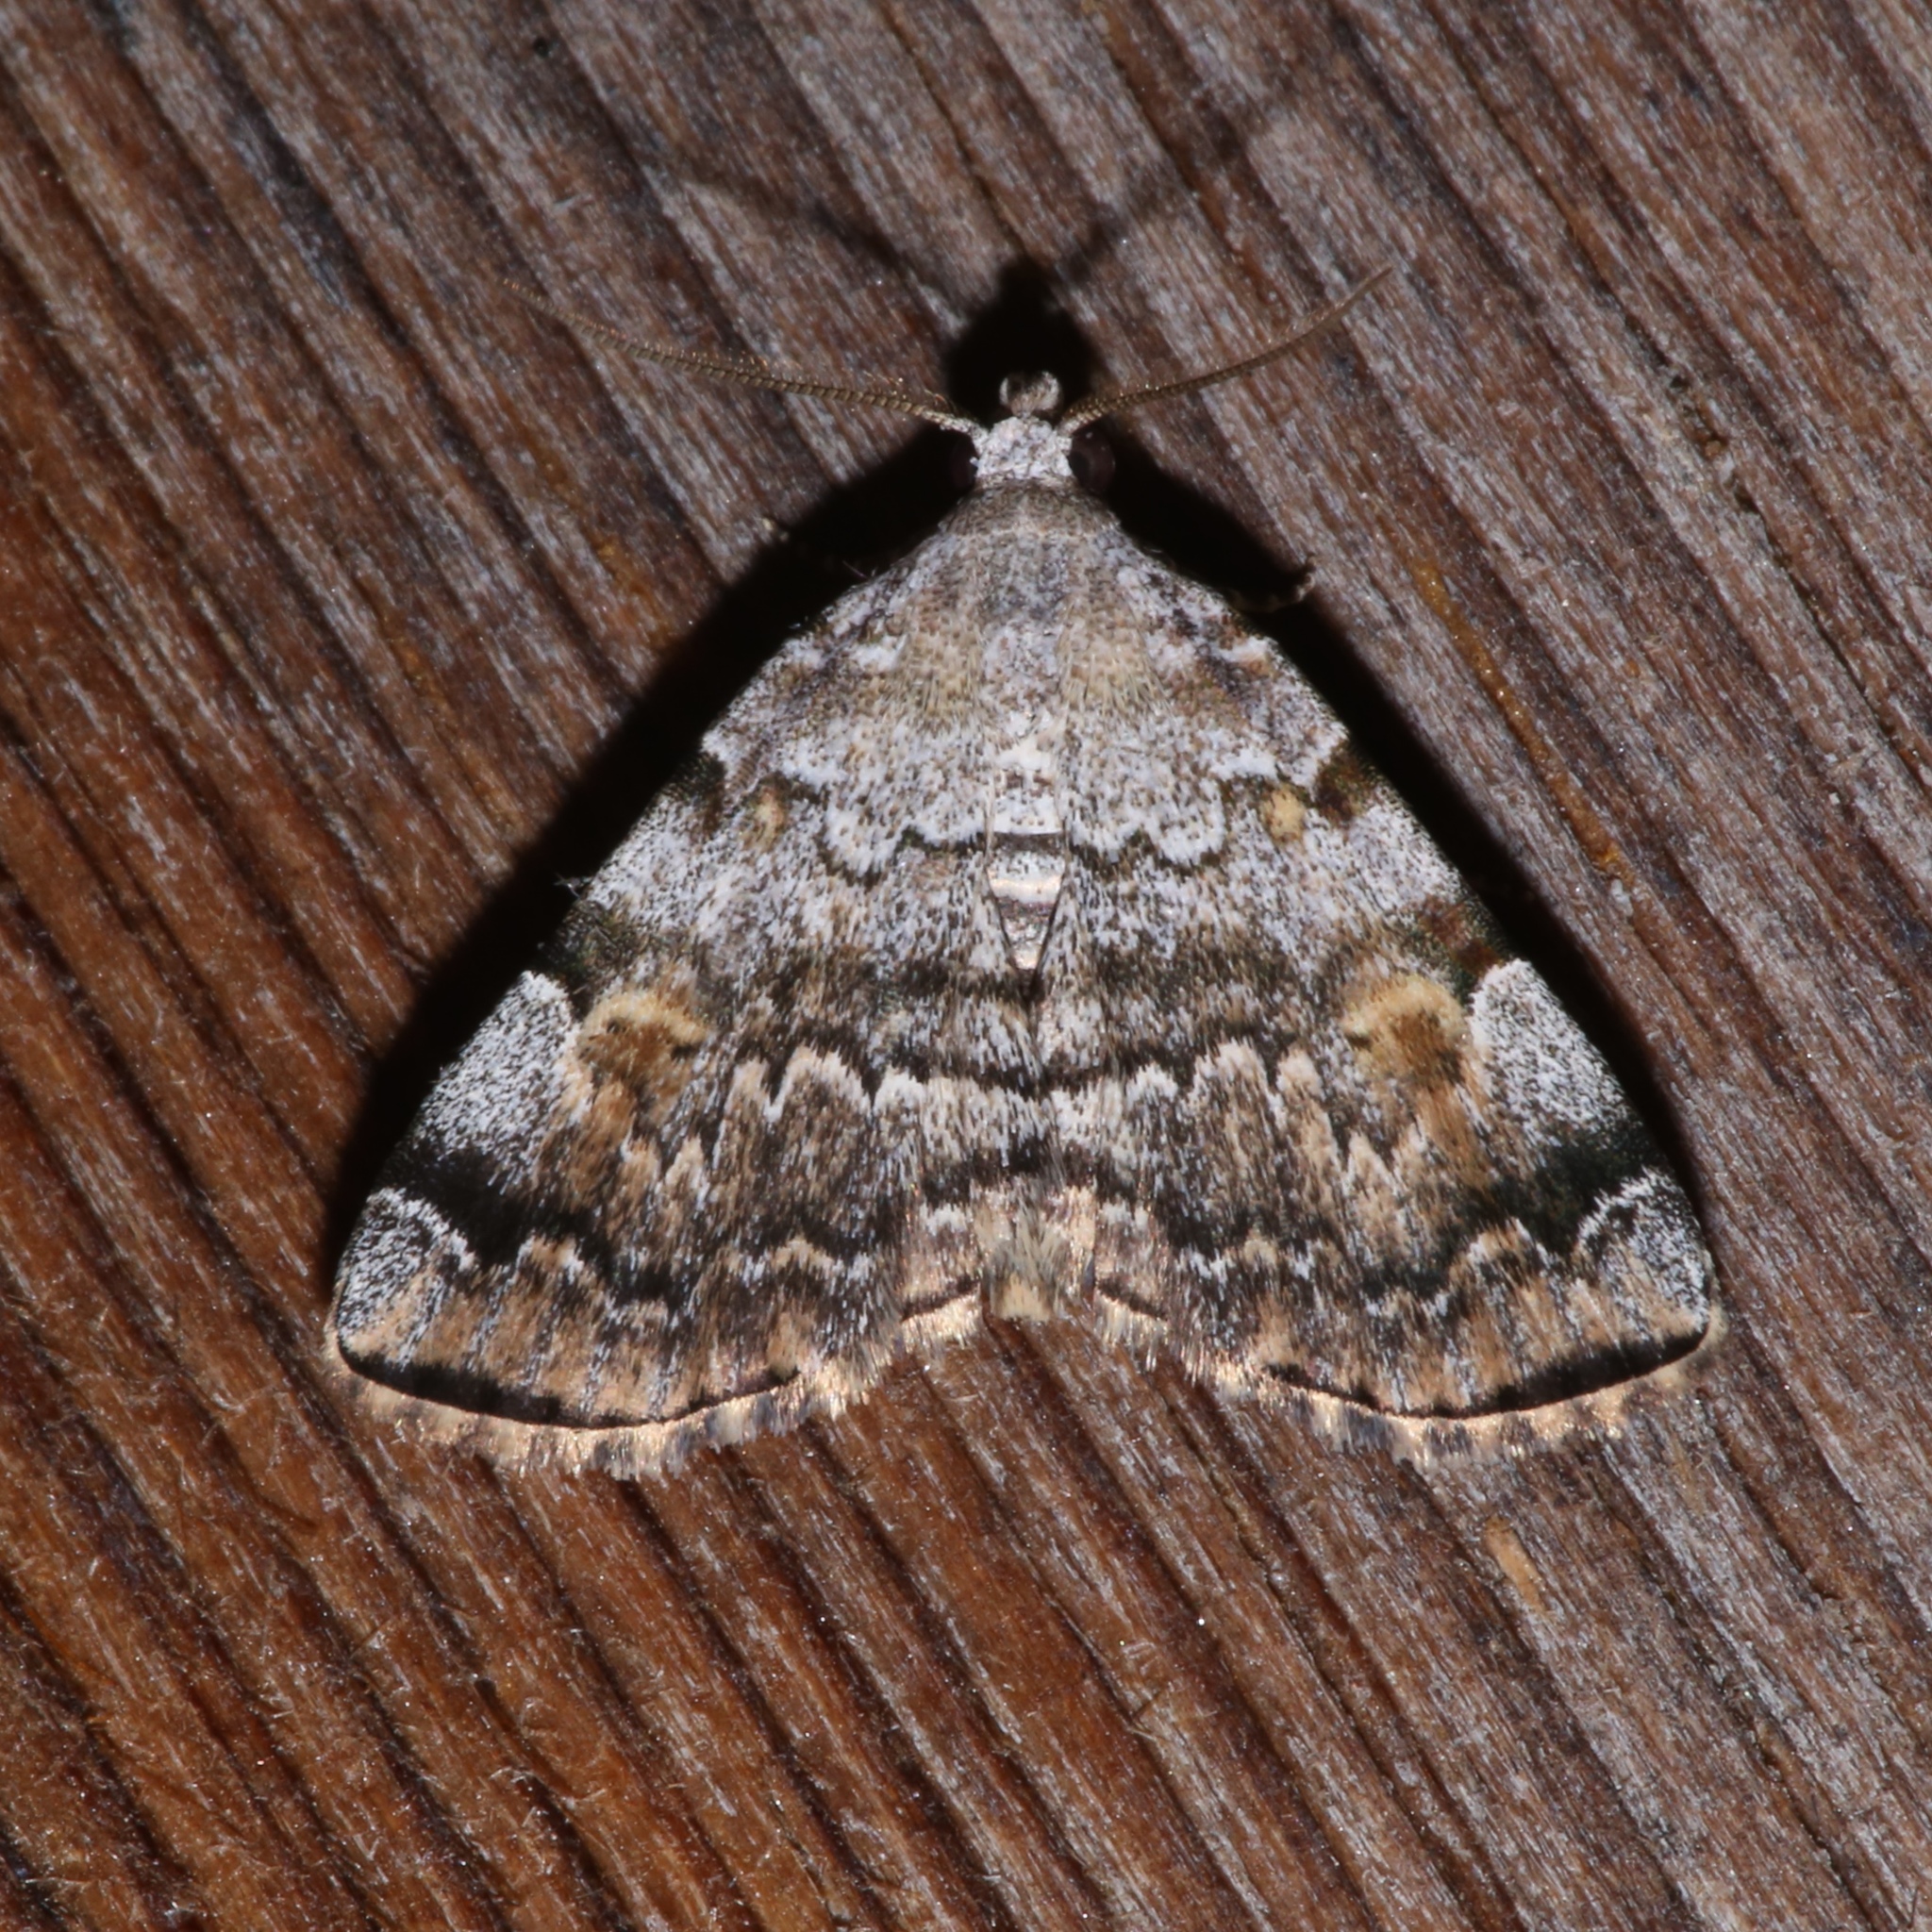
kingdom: Animalia
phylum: Arthropoda
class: Insecta
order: Lepidoptera
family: Erebidae
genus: Idia
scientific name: Idia americalis
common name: American idia moth
